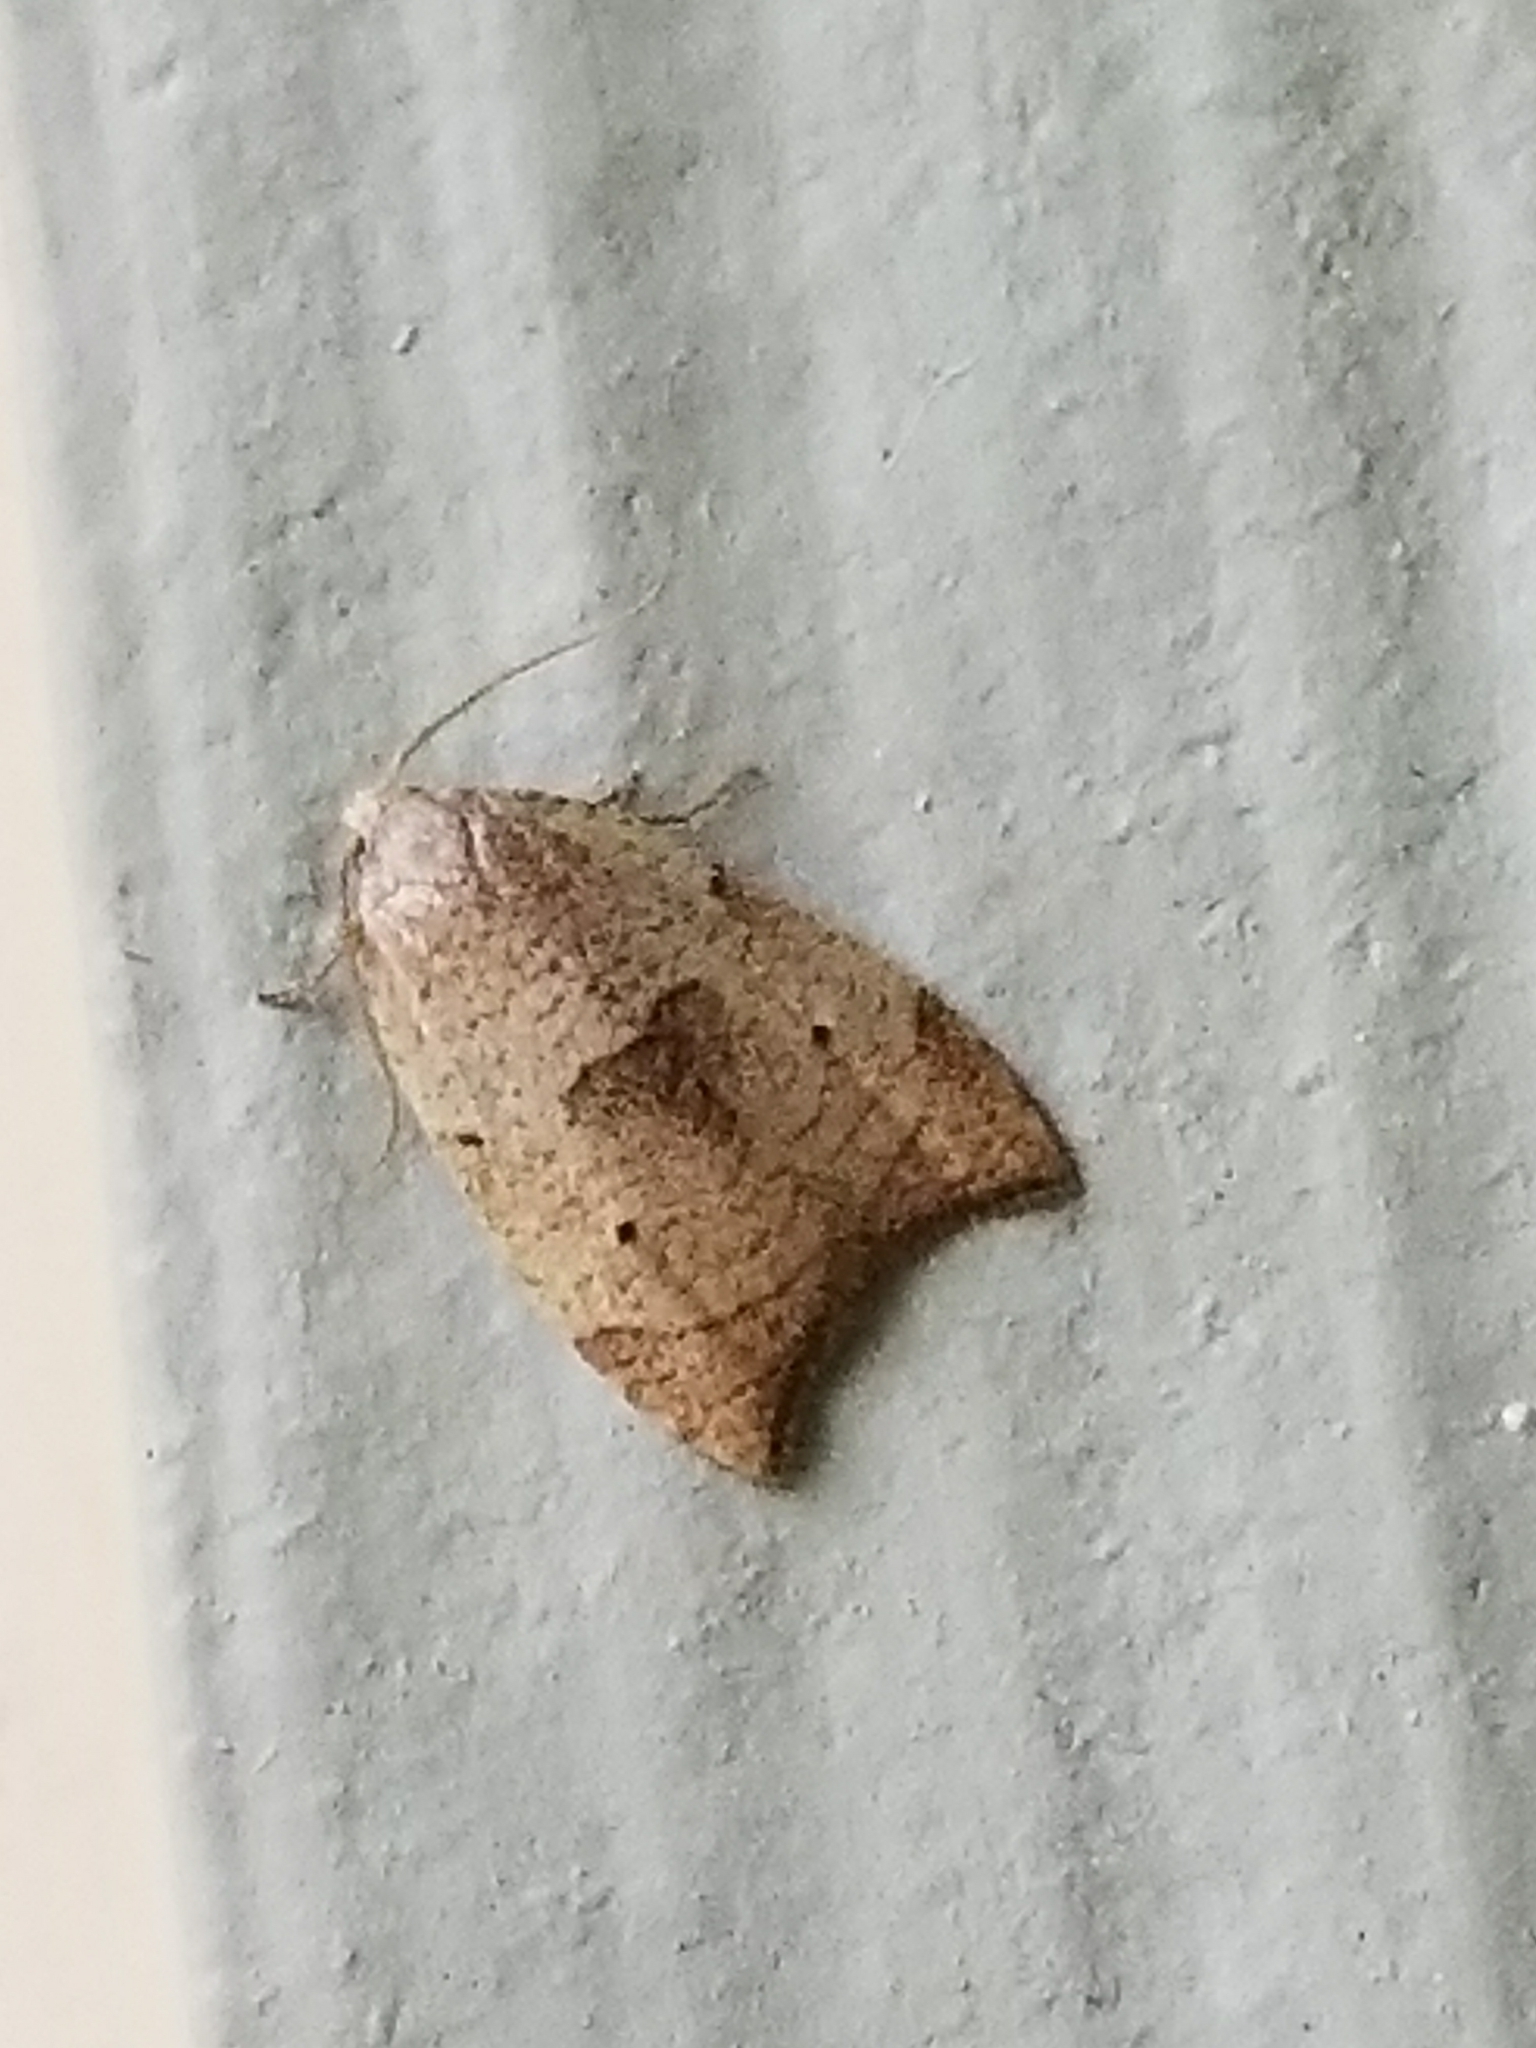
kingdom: Animalia
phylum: Arthropoda
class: Insecta
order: Lepidoptera
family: Tortricidae
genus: Coelostathma
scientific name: Coelostathma discopunctana
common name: Batman moth
